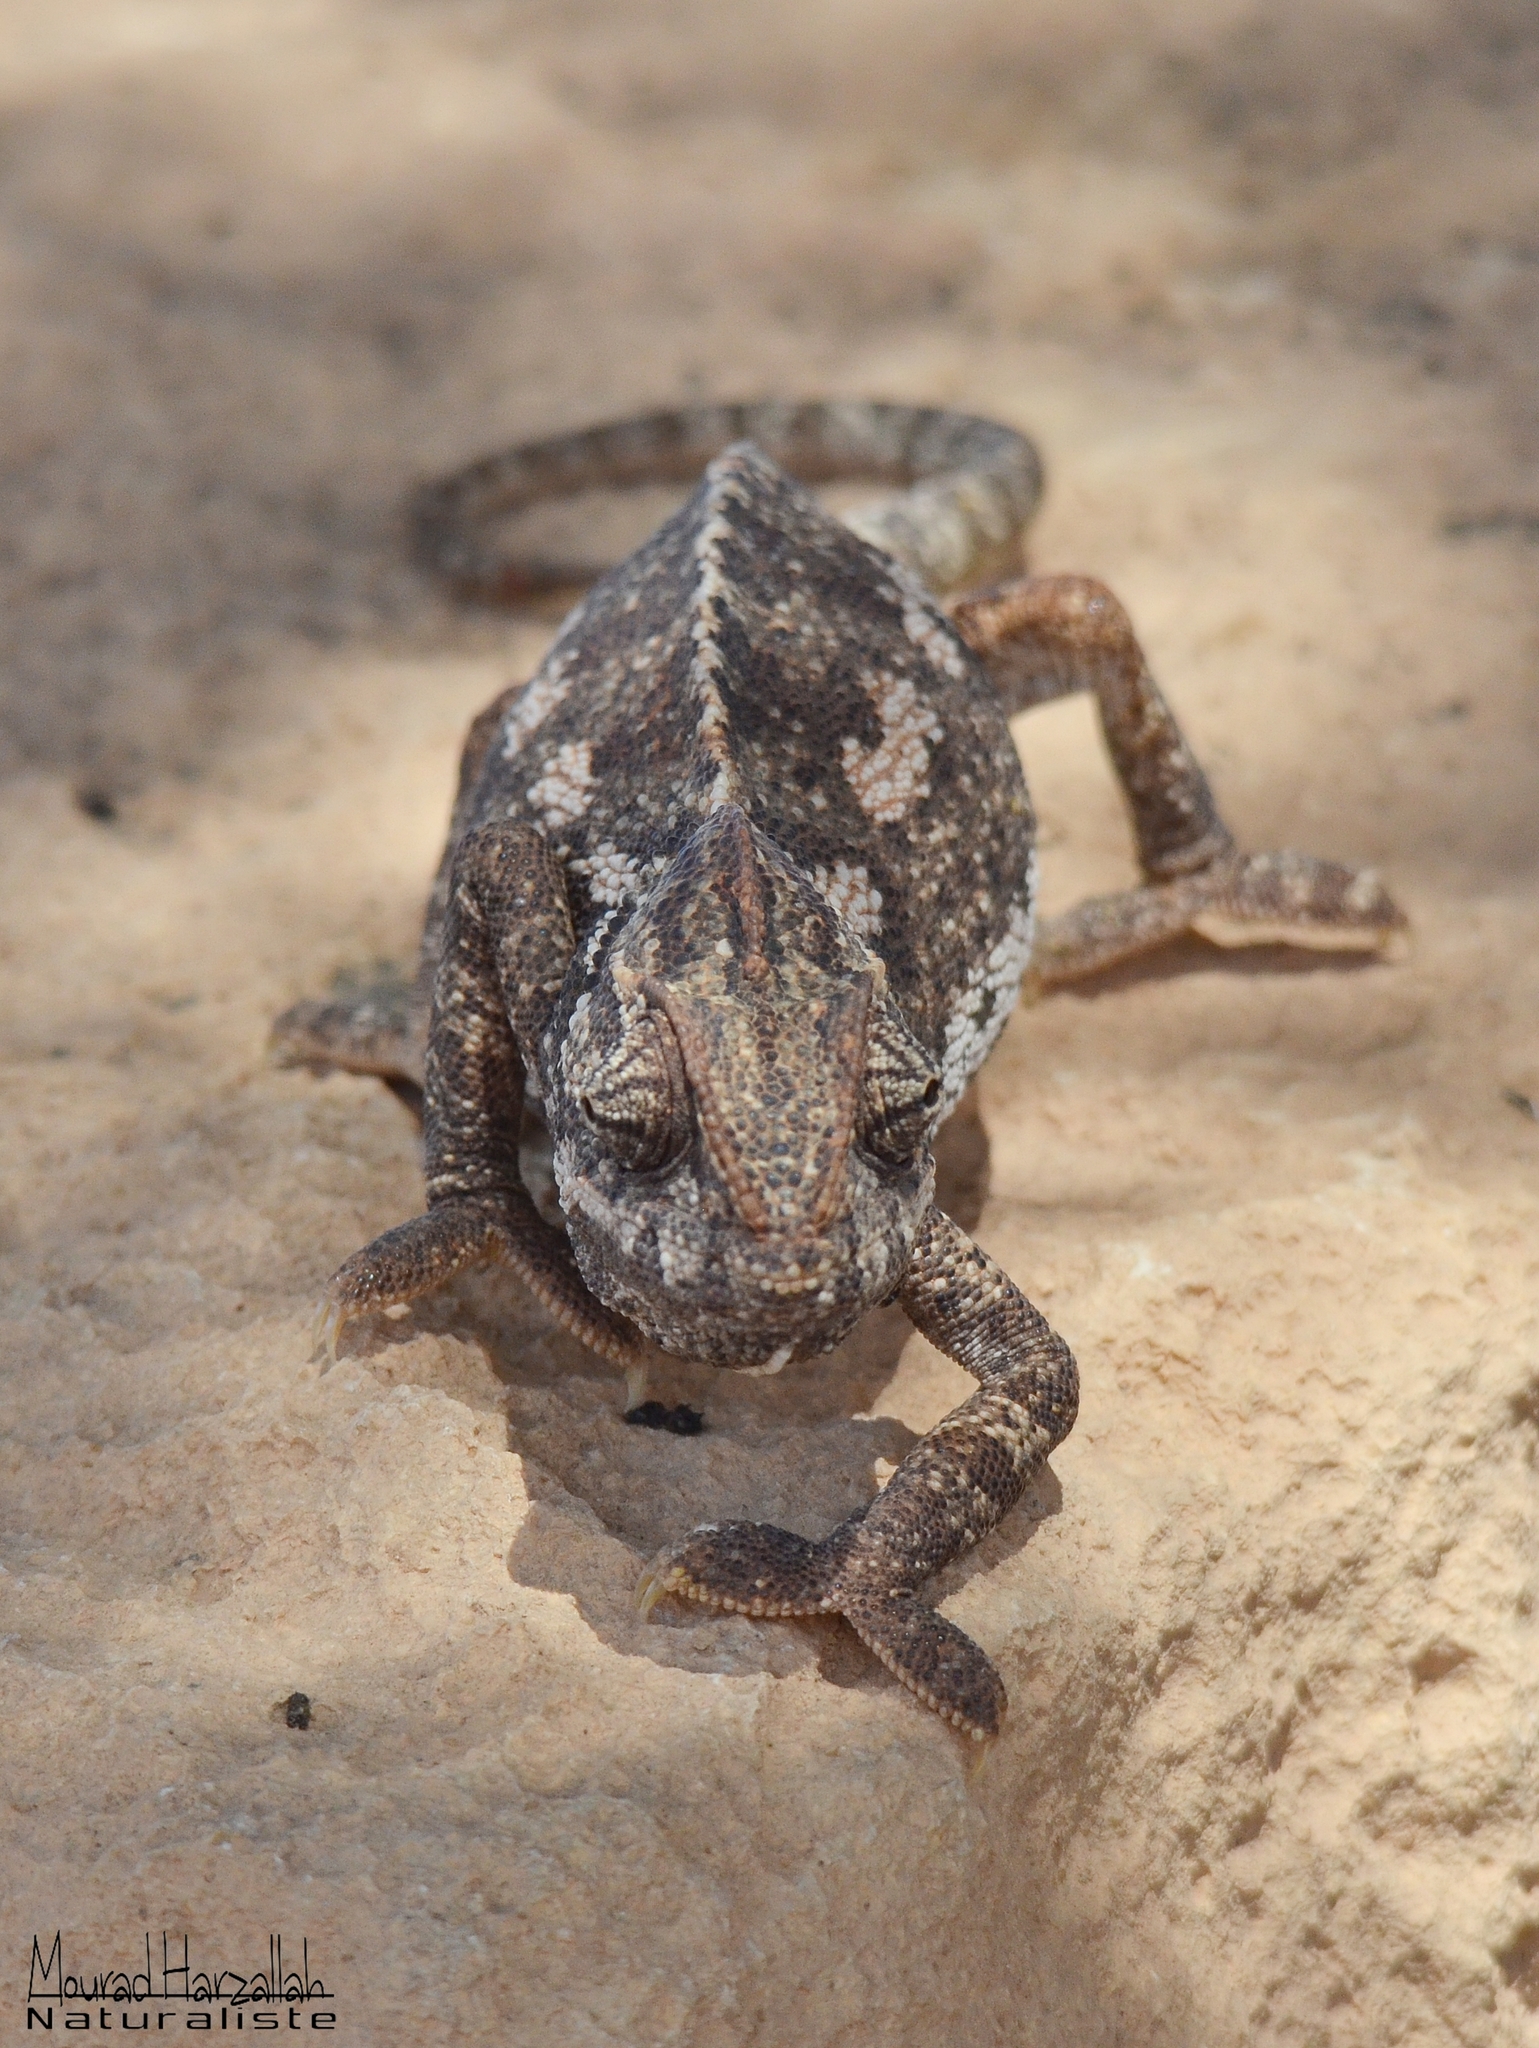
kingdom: Animalia
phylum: Chordata
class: Squamata
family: Chamaeleonidae
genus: Chamaeleo
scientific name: Chamaeleo chamaeleon
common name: Mediterranean chameleon
